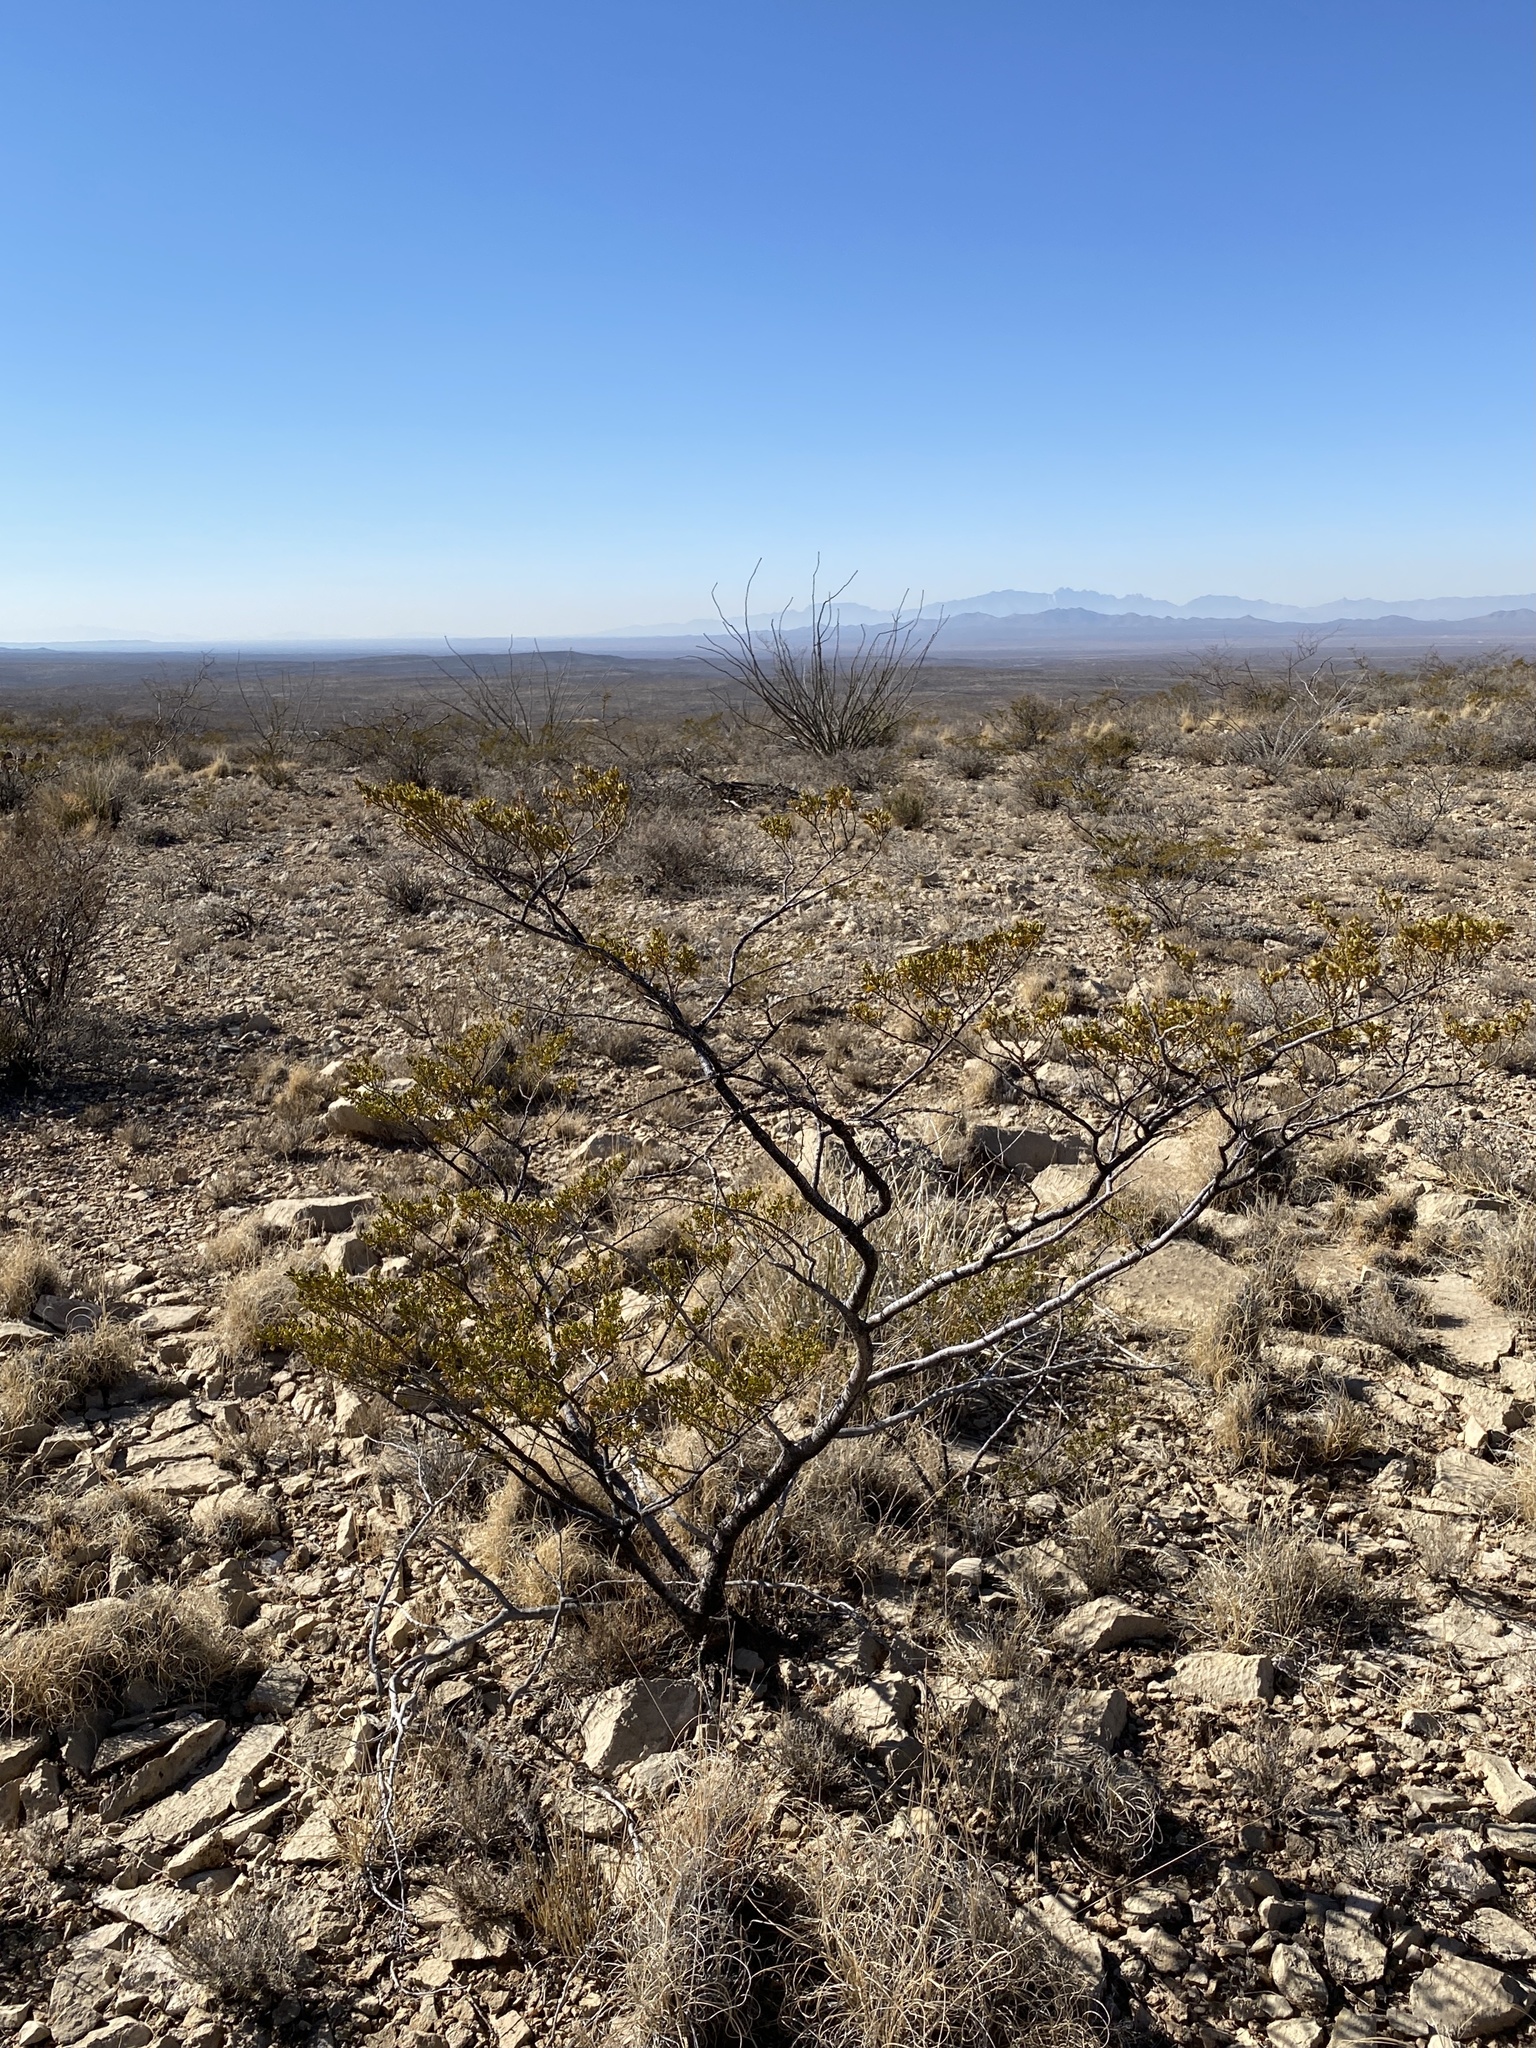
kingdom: Plantae
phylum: Tracheophyta
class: Magnoliopsida
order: Zygophyllales
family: Zygophyllaceae
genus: Larrea
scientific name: Larrea tridentata
